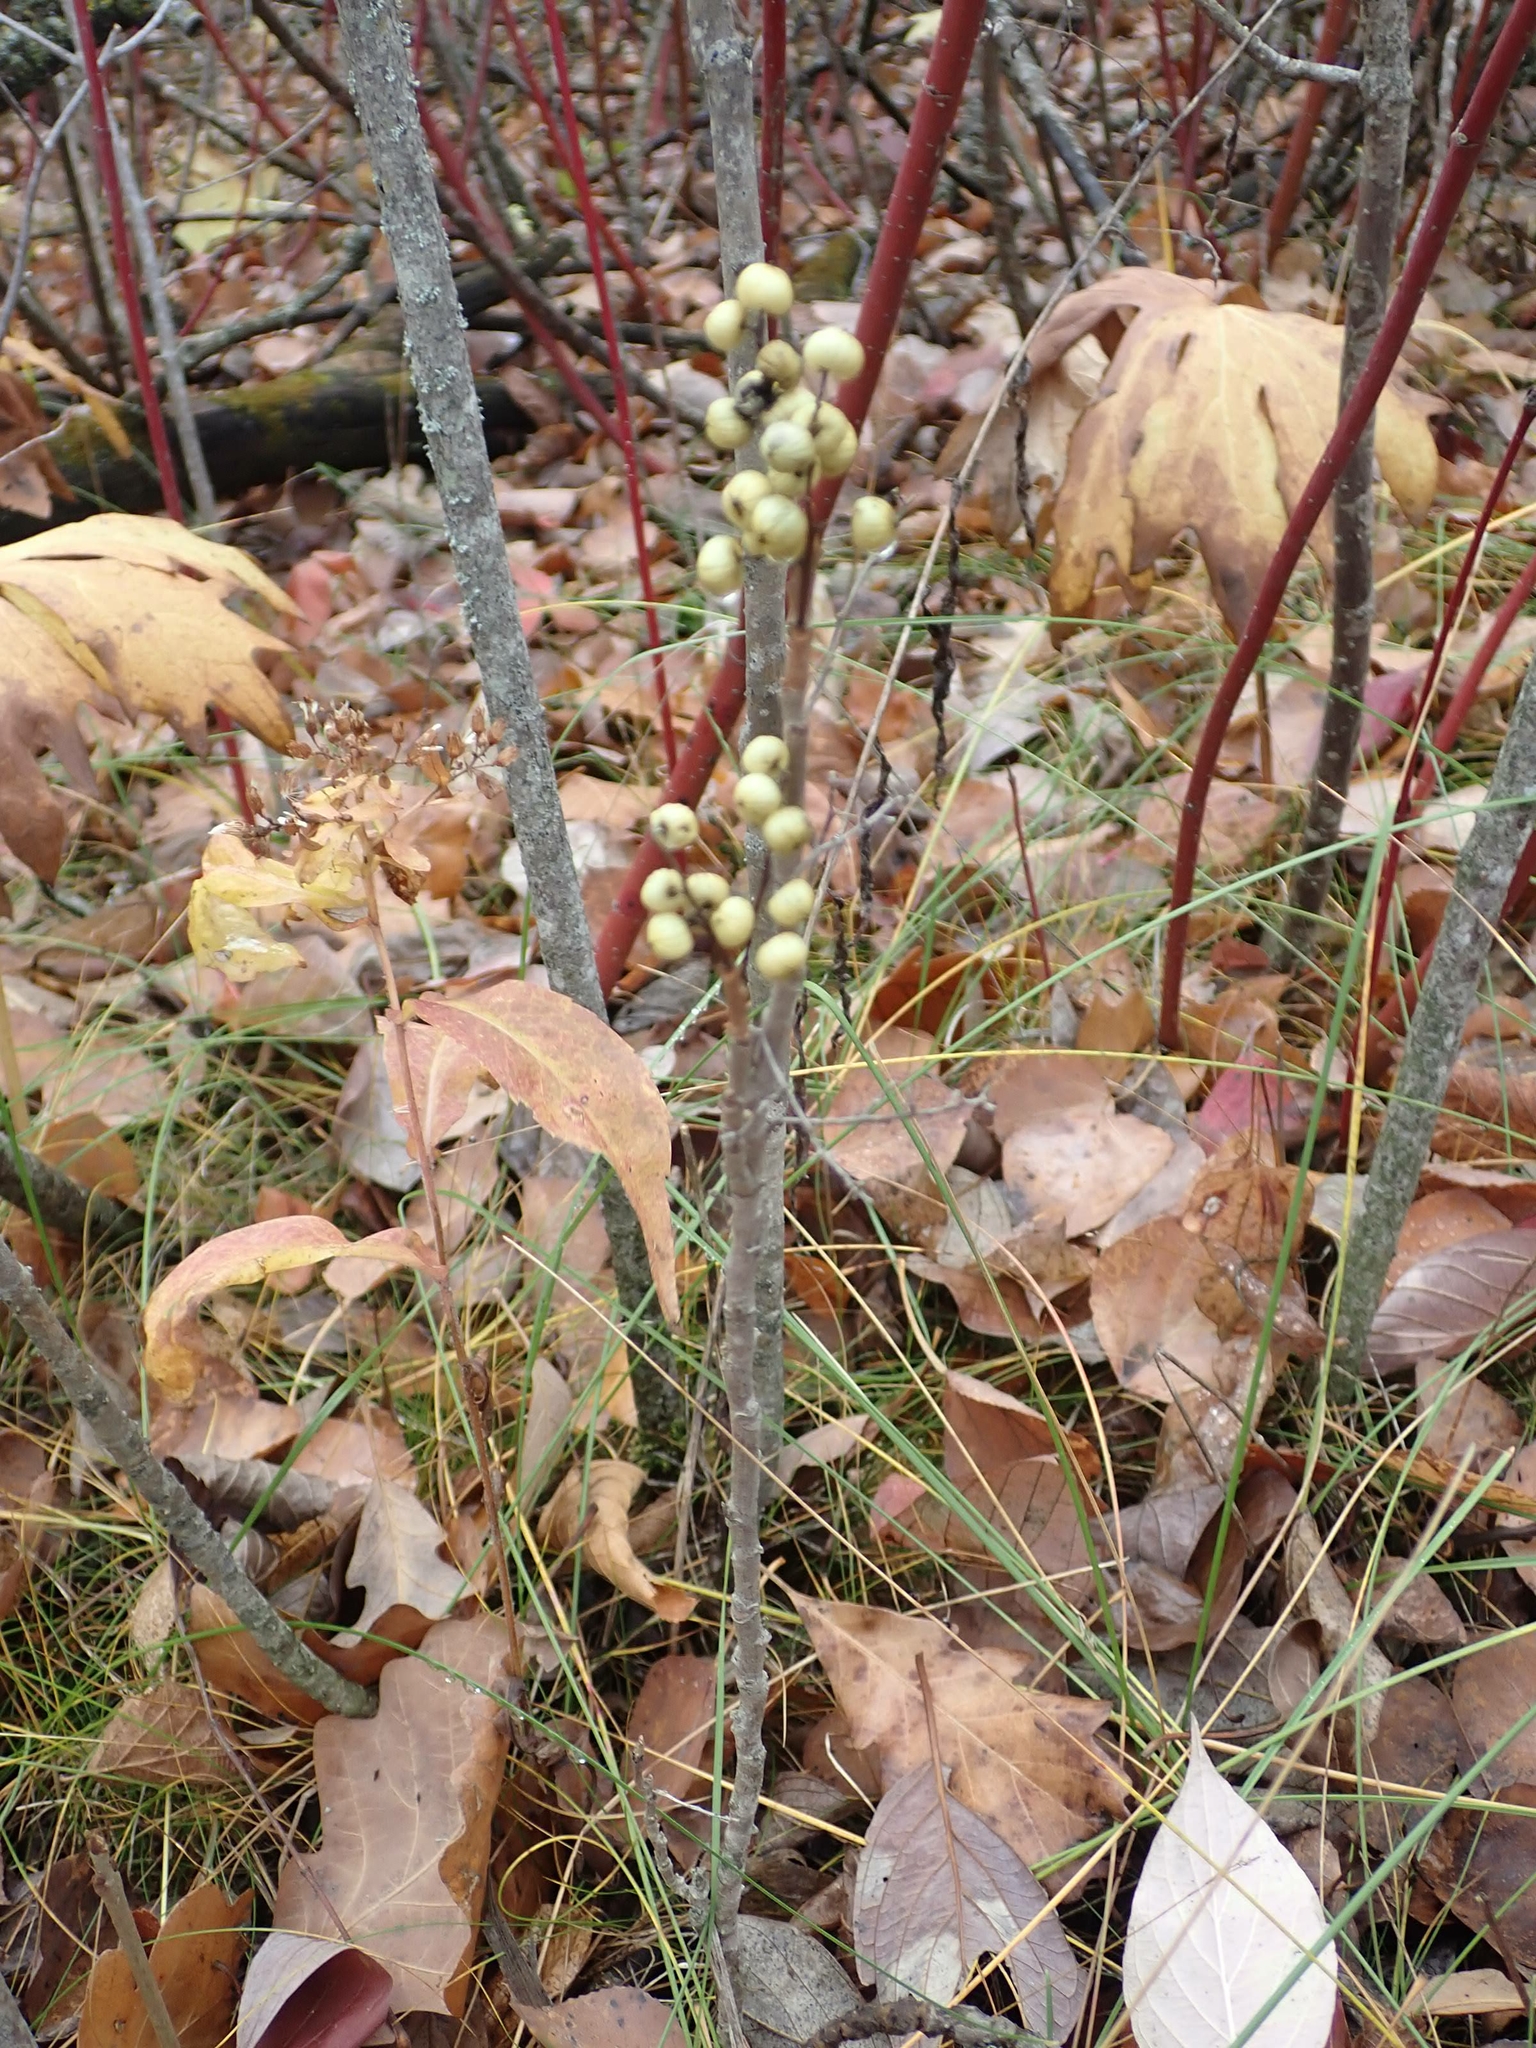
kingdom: Plantae
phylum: Tracheophyta
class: Magnoliopsida
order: Sapindales
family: Anacardiaceae
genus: Toxicodendron
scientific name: Toxicodendron rydbergii
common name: Rydberg's poison-ivy
